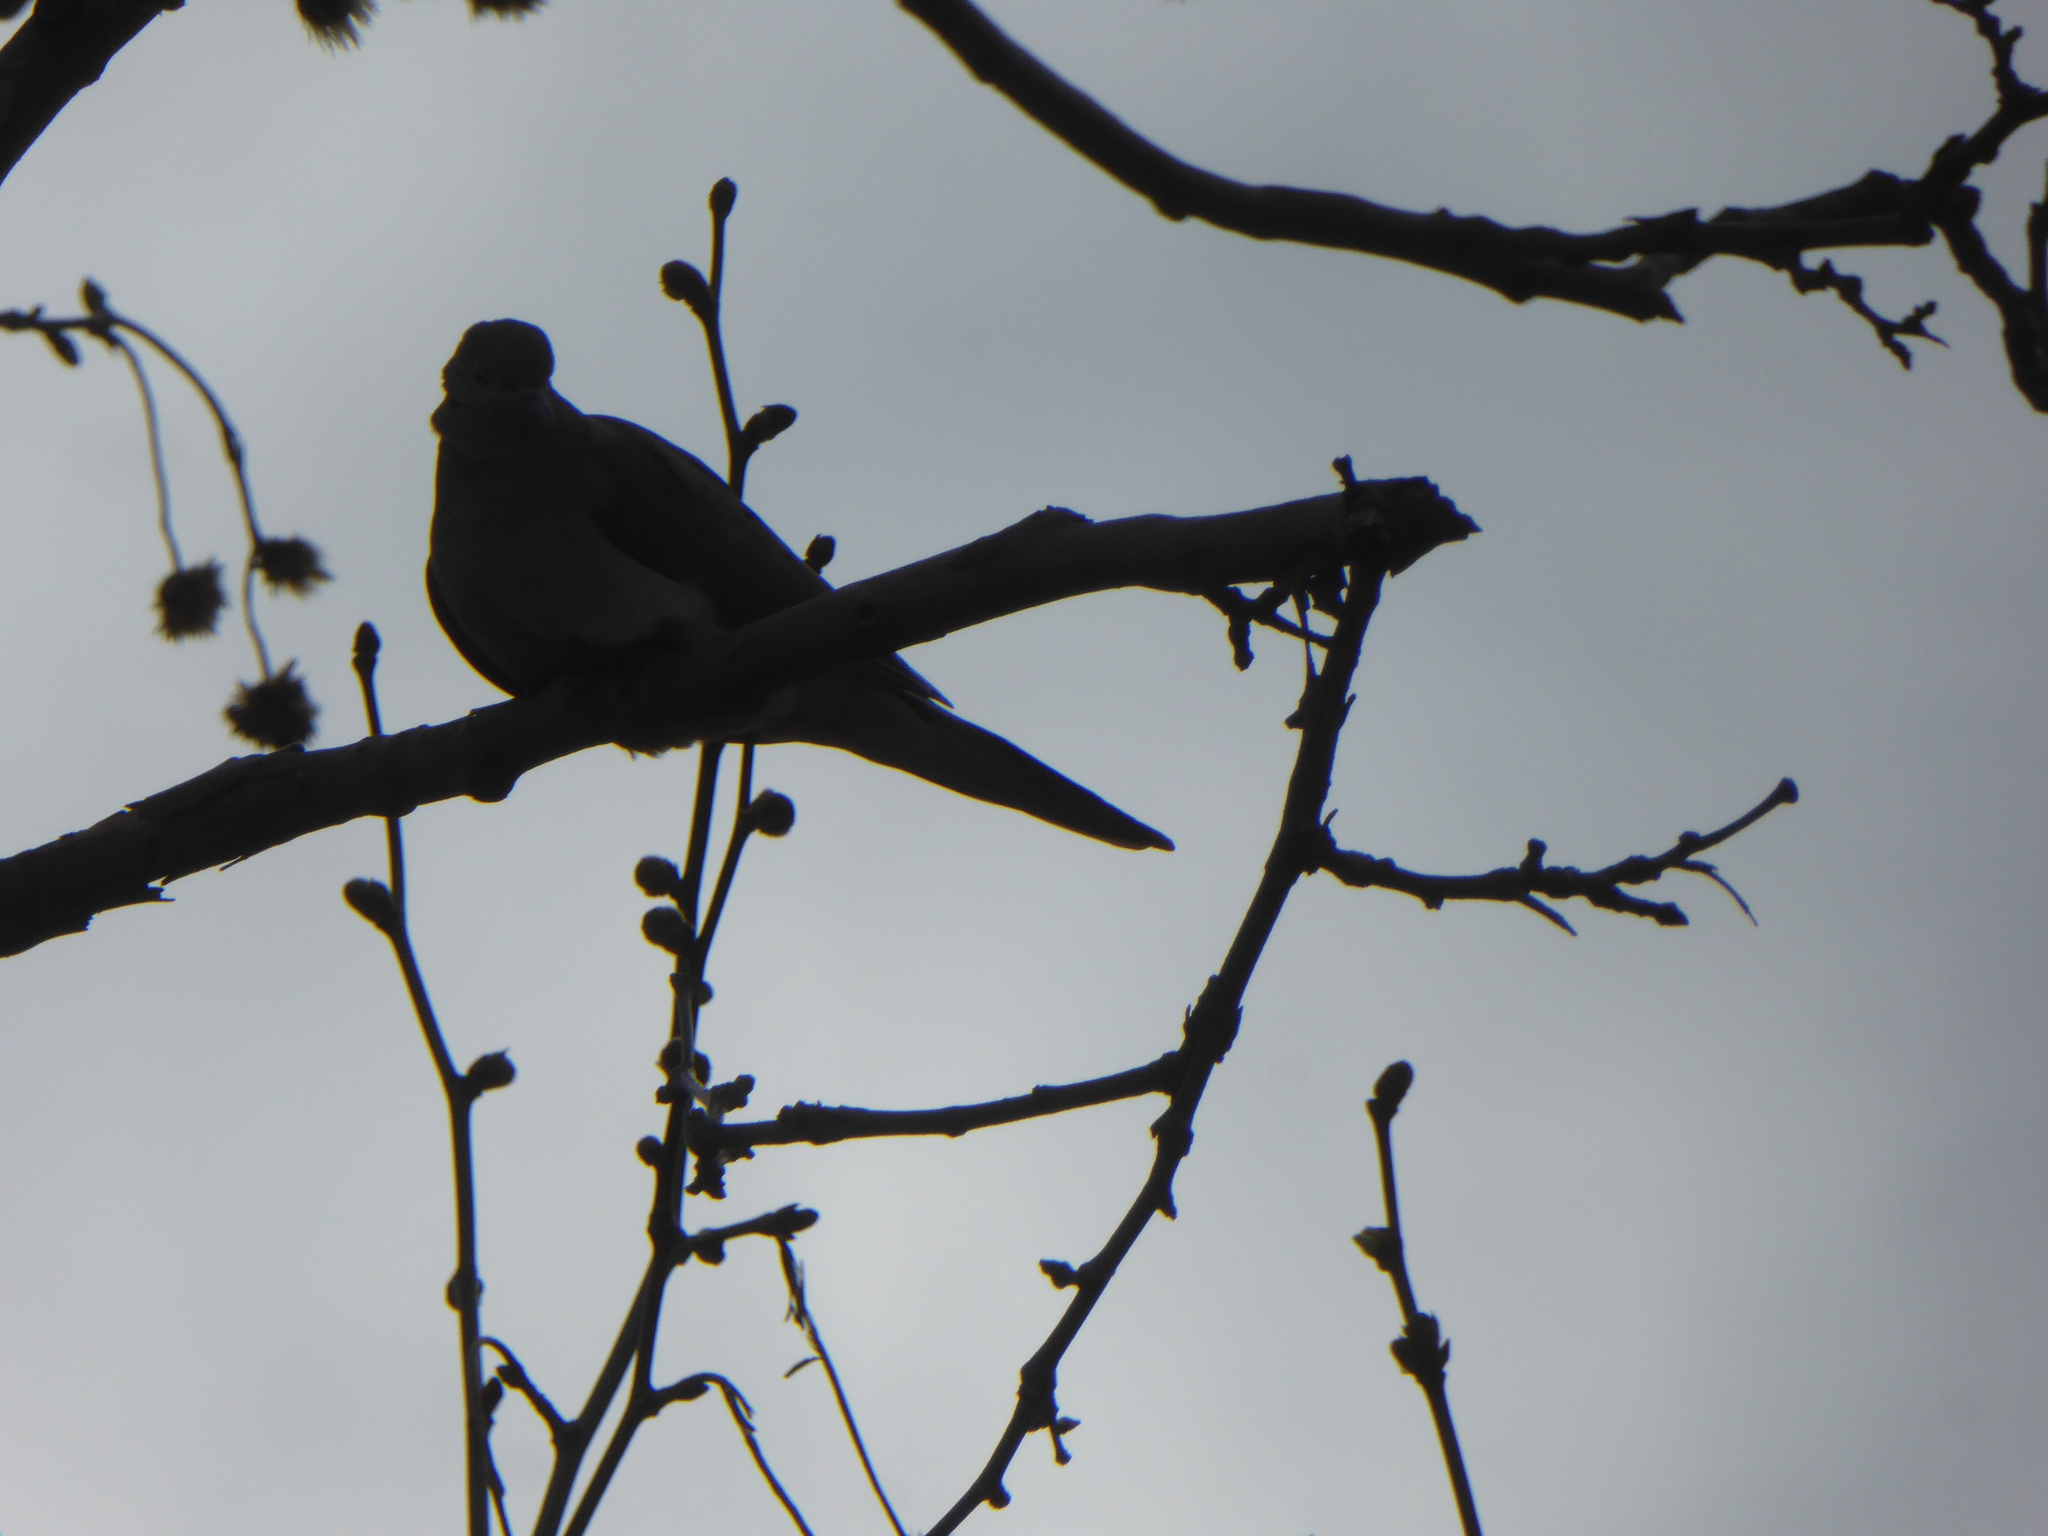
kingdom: Animalia
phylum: Chordata
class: Aves
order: Columbiformes
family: Columbidae
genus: Zenaida
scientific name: Zenaida macroura
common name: Mourning dove
